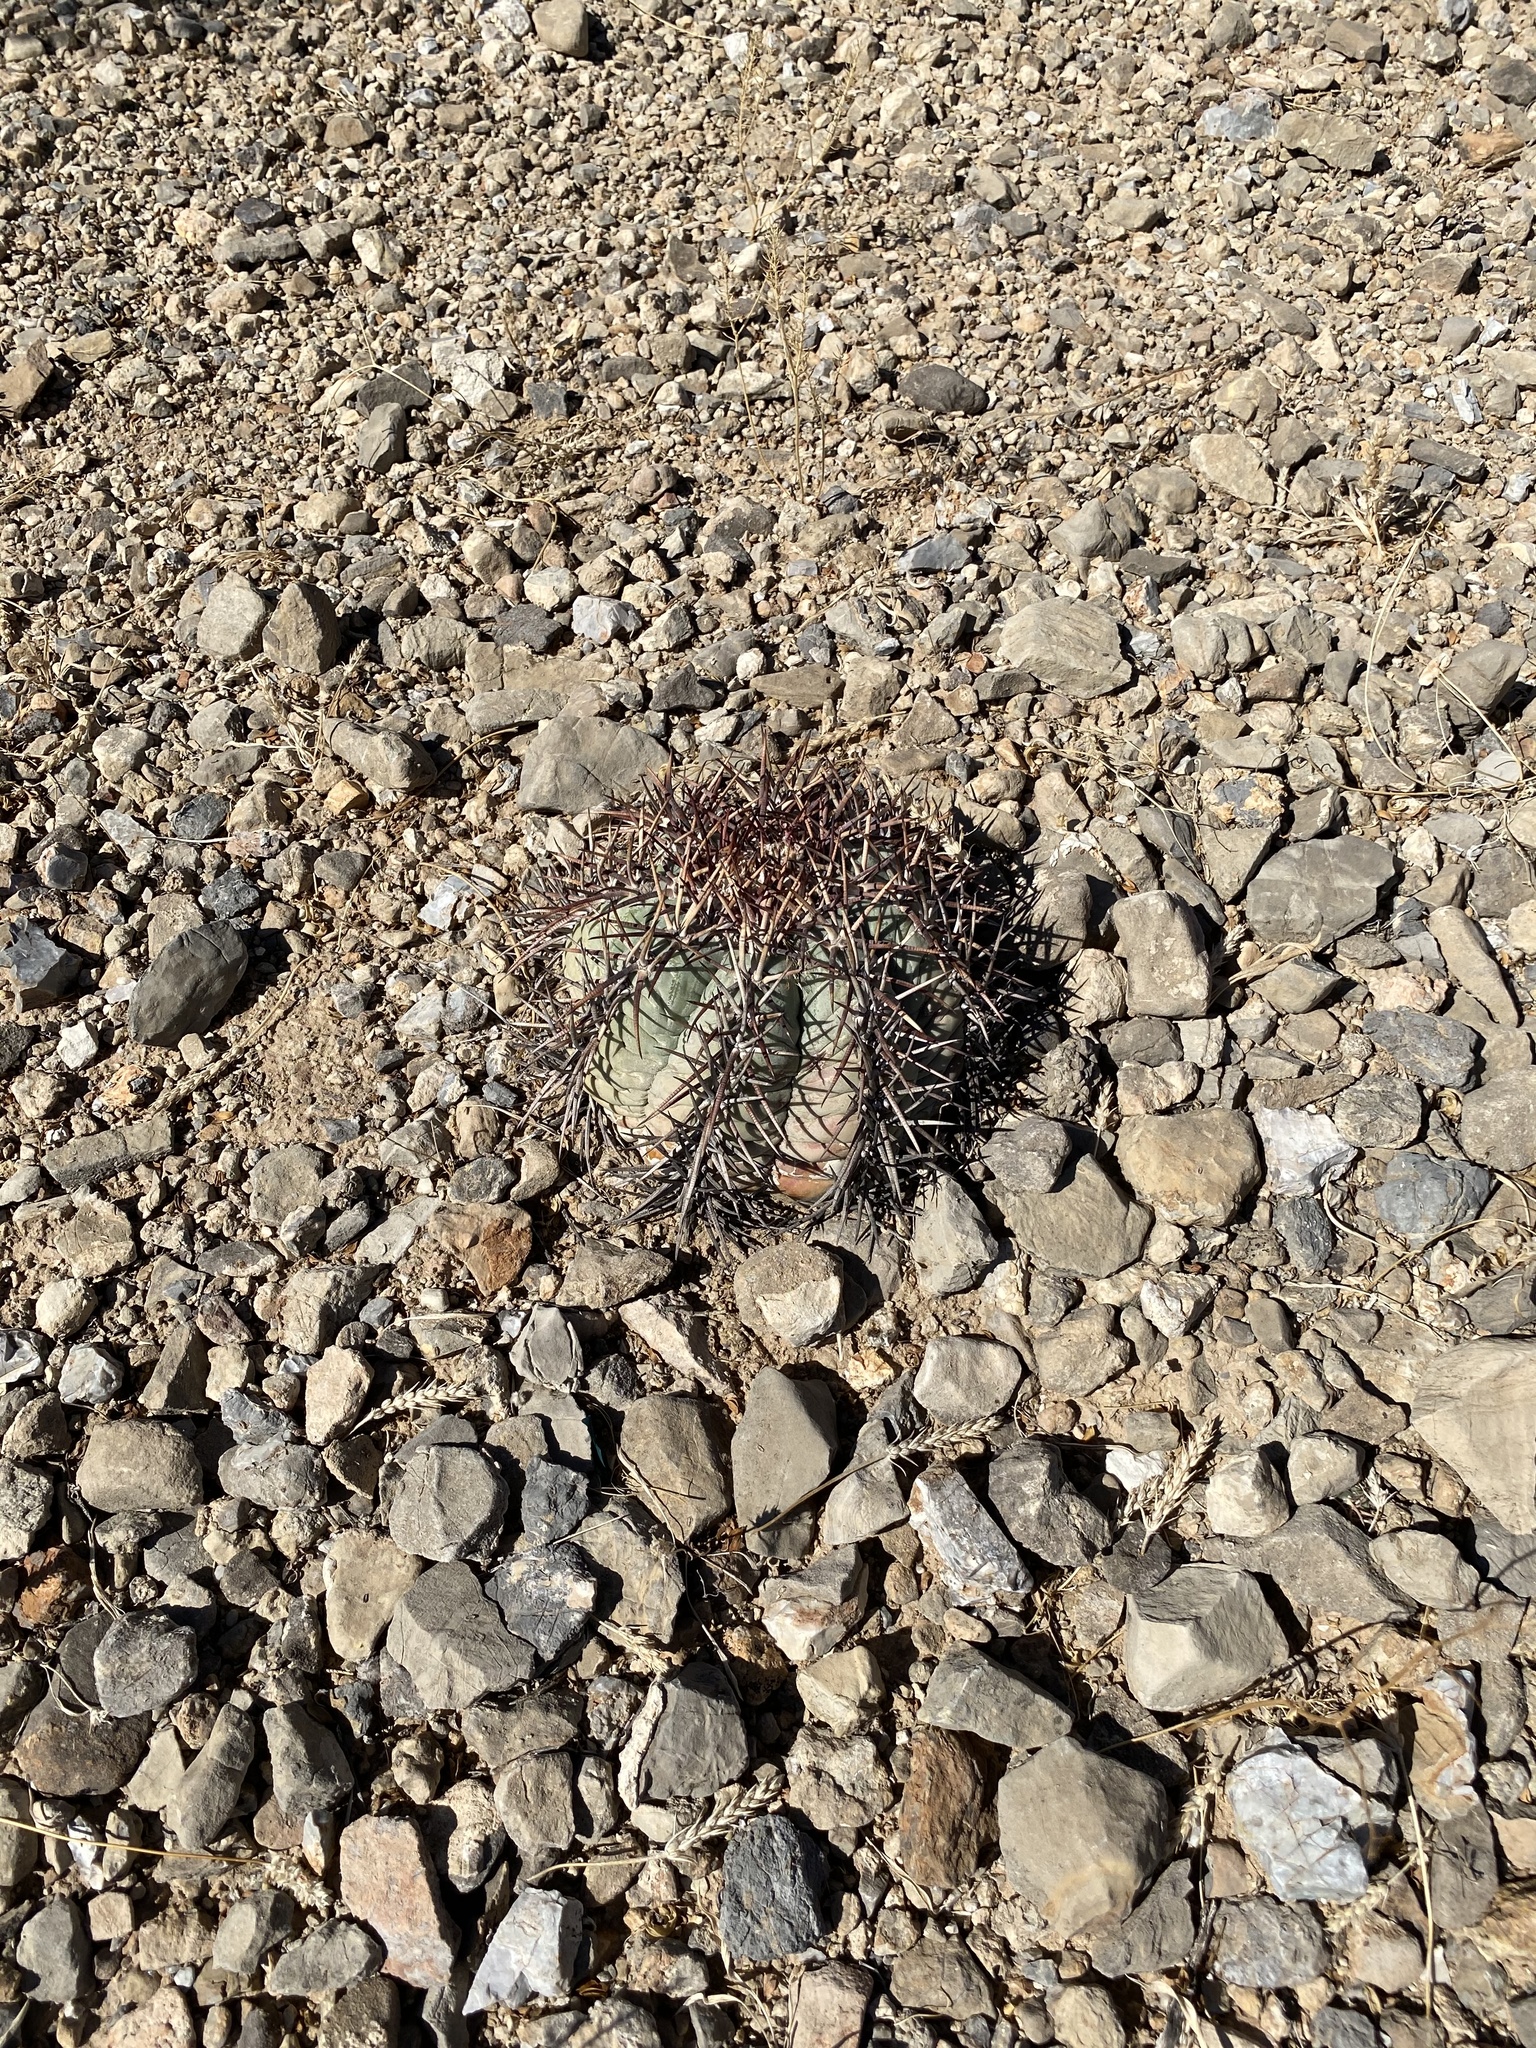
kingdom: Plantae
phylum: Tracheophyta
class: Magnoliopsida
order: Caryophyllales
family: Cactaceae
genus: Echinocactus
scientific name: Echinocactus horizonthalonius
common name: Devilshead
